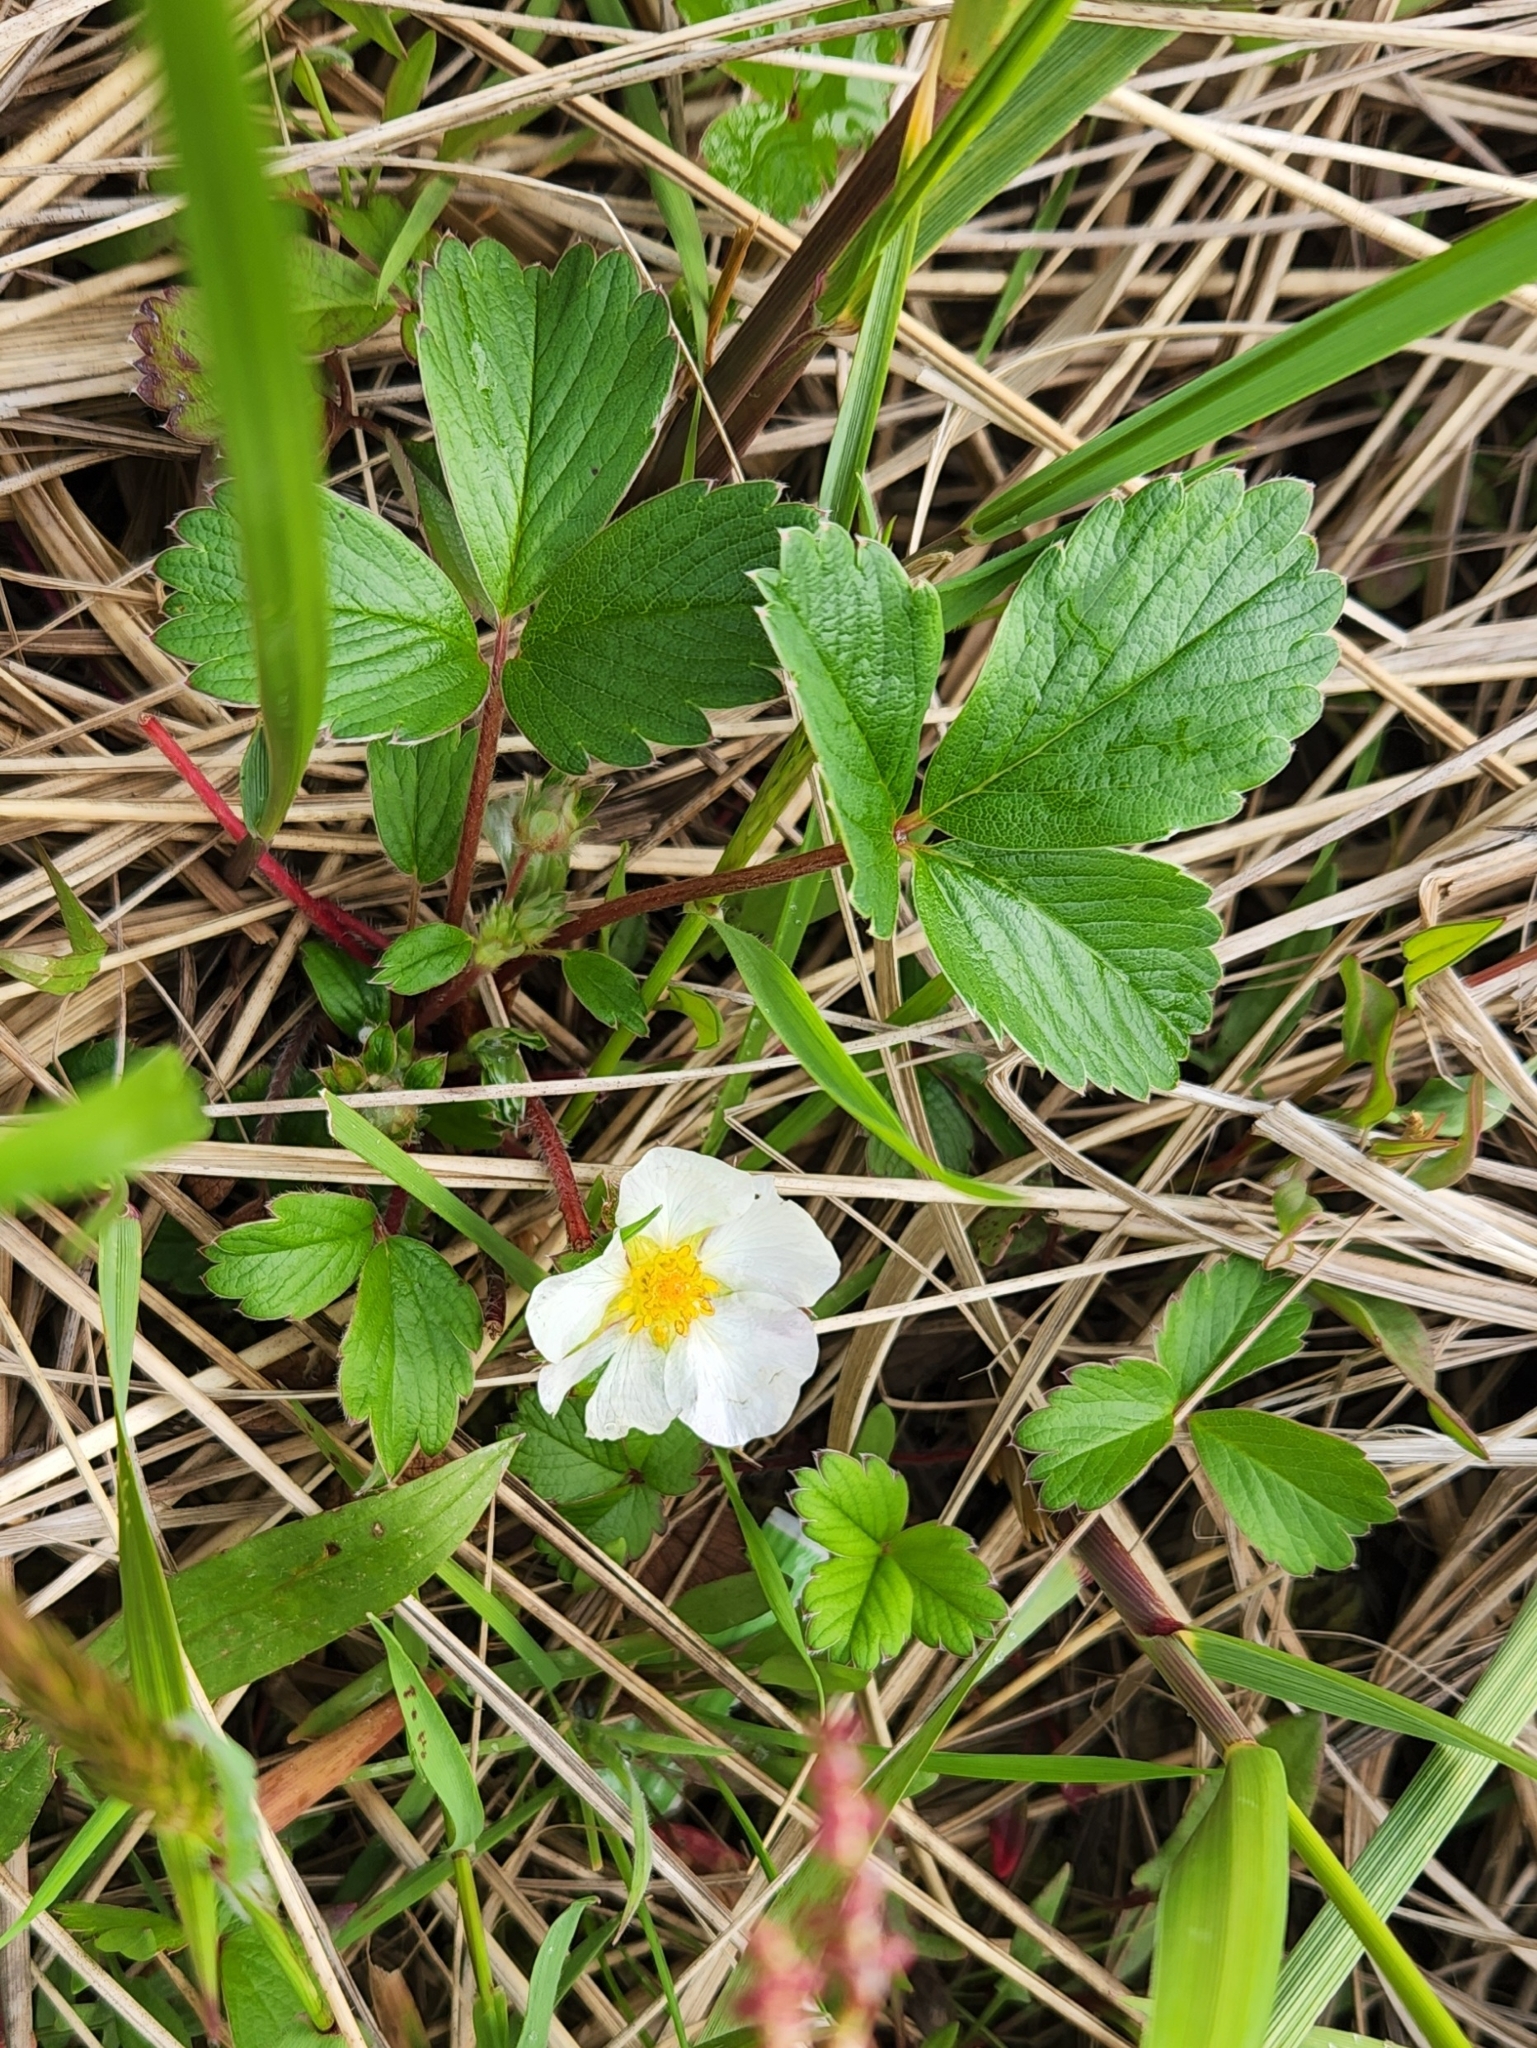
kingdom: Plantae
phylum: Tracheophyta
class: Magnoliopsida
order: Rosales
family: Rosaceae
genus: Fragaria
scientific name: Fragaria chiloensis
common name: Beach strawberry
